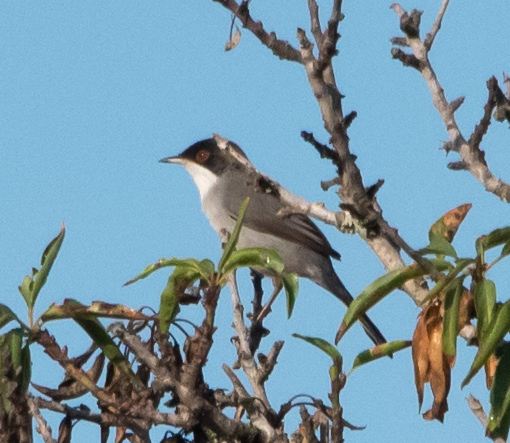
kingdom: Animalia
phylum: Chordata
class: Aves
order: Passeriformes
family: Sylviidae
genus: Curruca
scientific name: Curruca melanocephala
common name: Sardinian warbler
